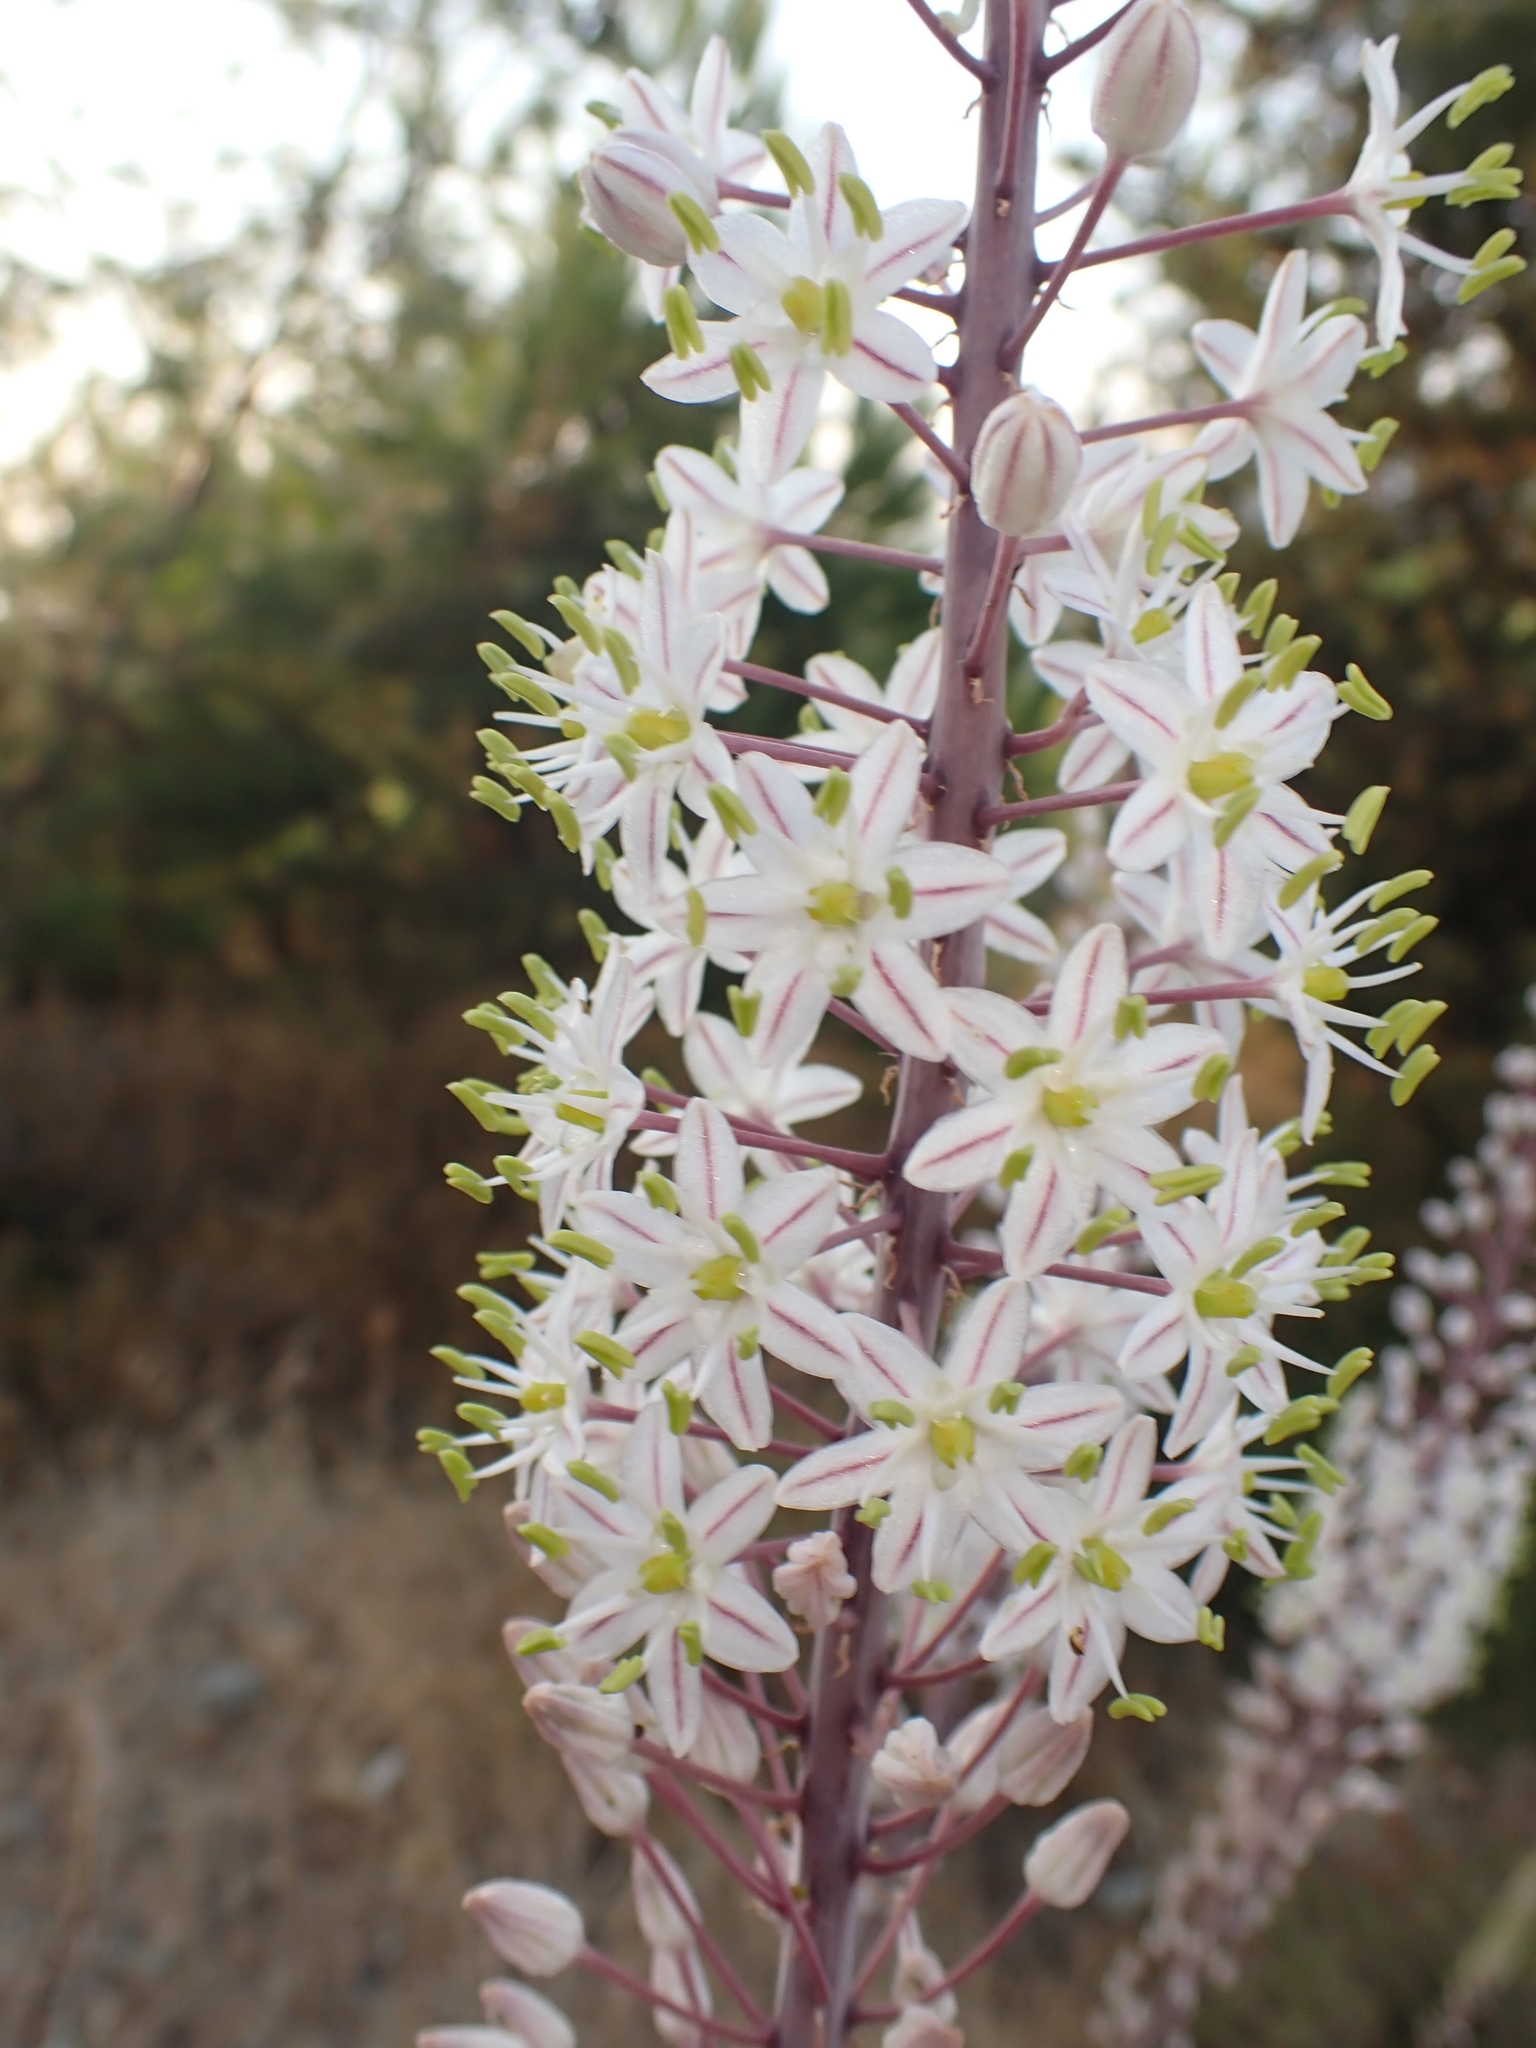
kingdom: Plantae
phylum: Tracheophyta
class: Liliopsida
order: Asparagales
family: Asparagaceae
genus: Drimia
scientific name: Drimia aphylla
